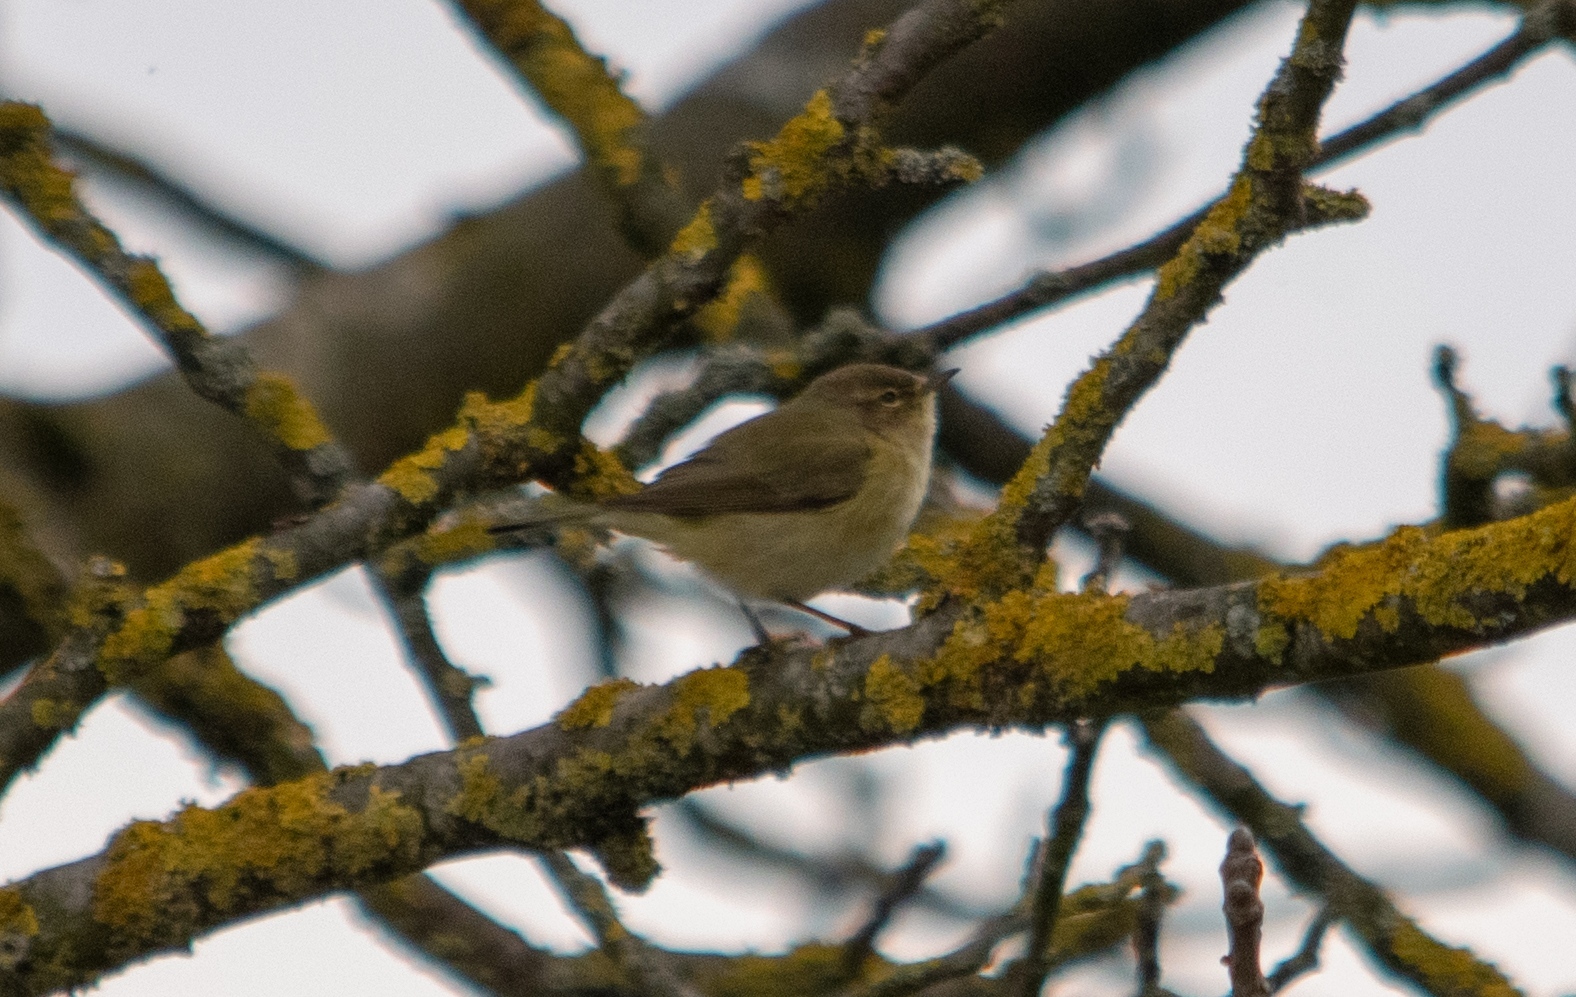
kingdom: Animalia
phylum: Chordata
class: Aves
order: Passeriformes
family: Phylloscopidae
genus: Phylloscopus
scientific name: Phylloscopus collybita
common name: Common chiffchaff
